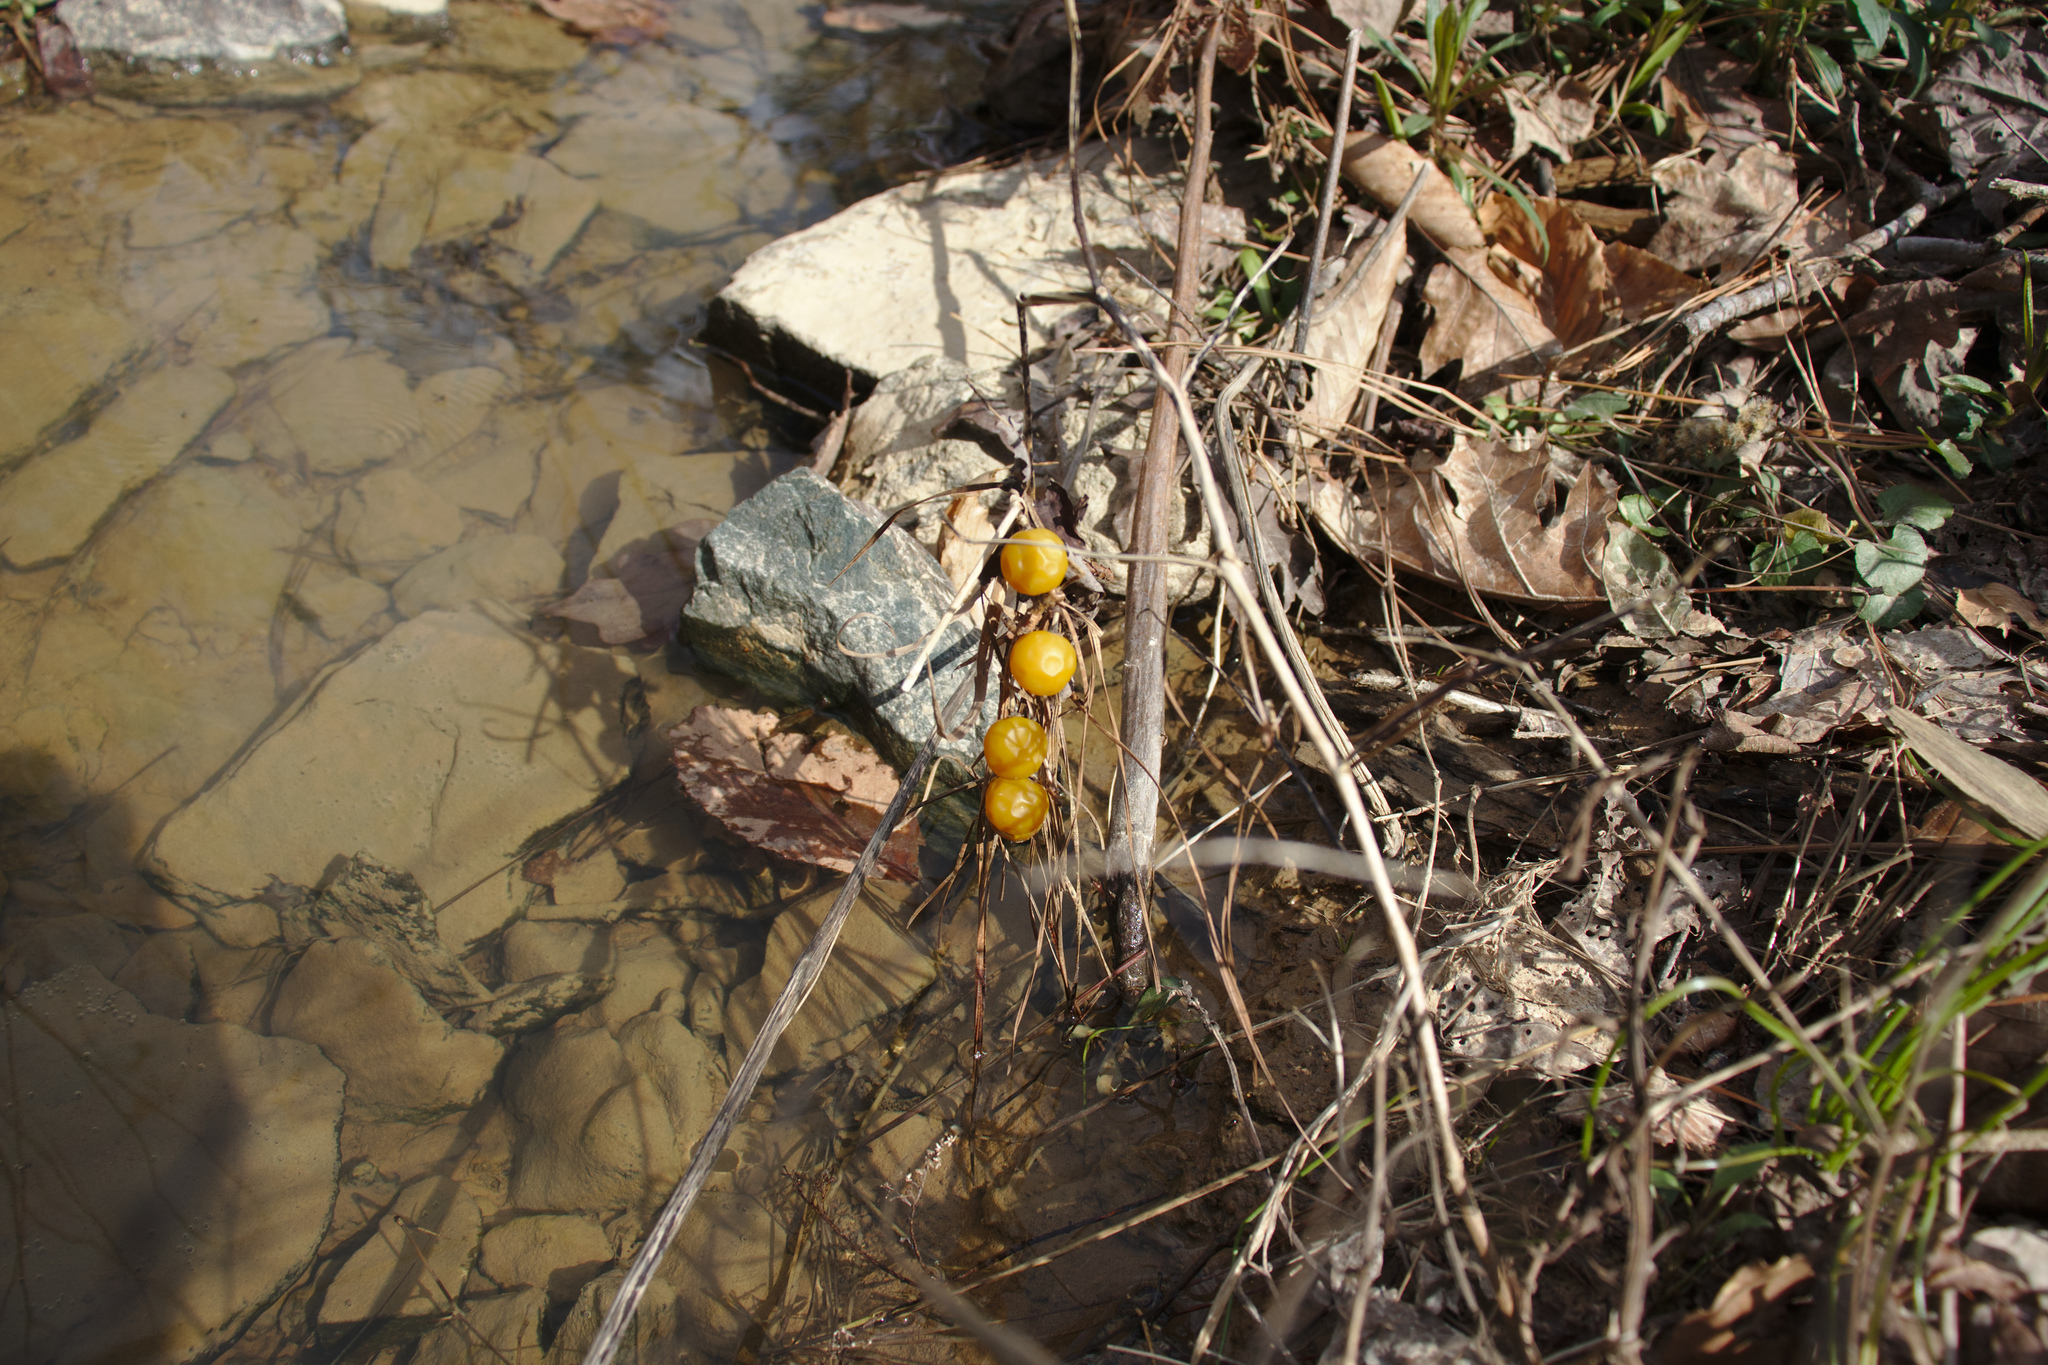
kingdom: Plantae
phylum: Tracheophyta
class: Magnoliopsida
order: Solanales
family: Solanaceae
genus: Solanum
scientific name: Solanum carolinense
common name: Horse-nettle
